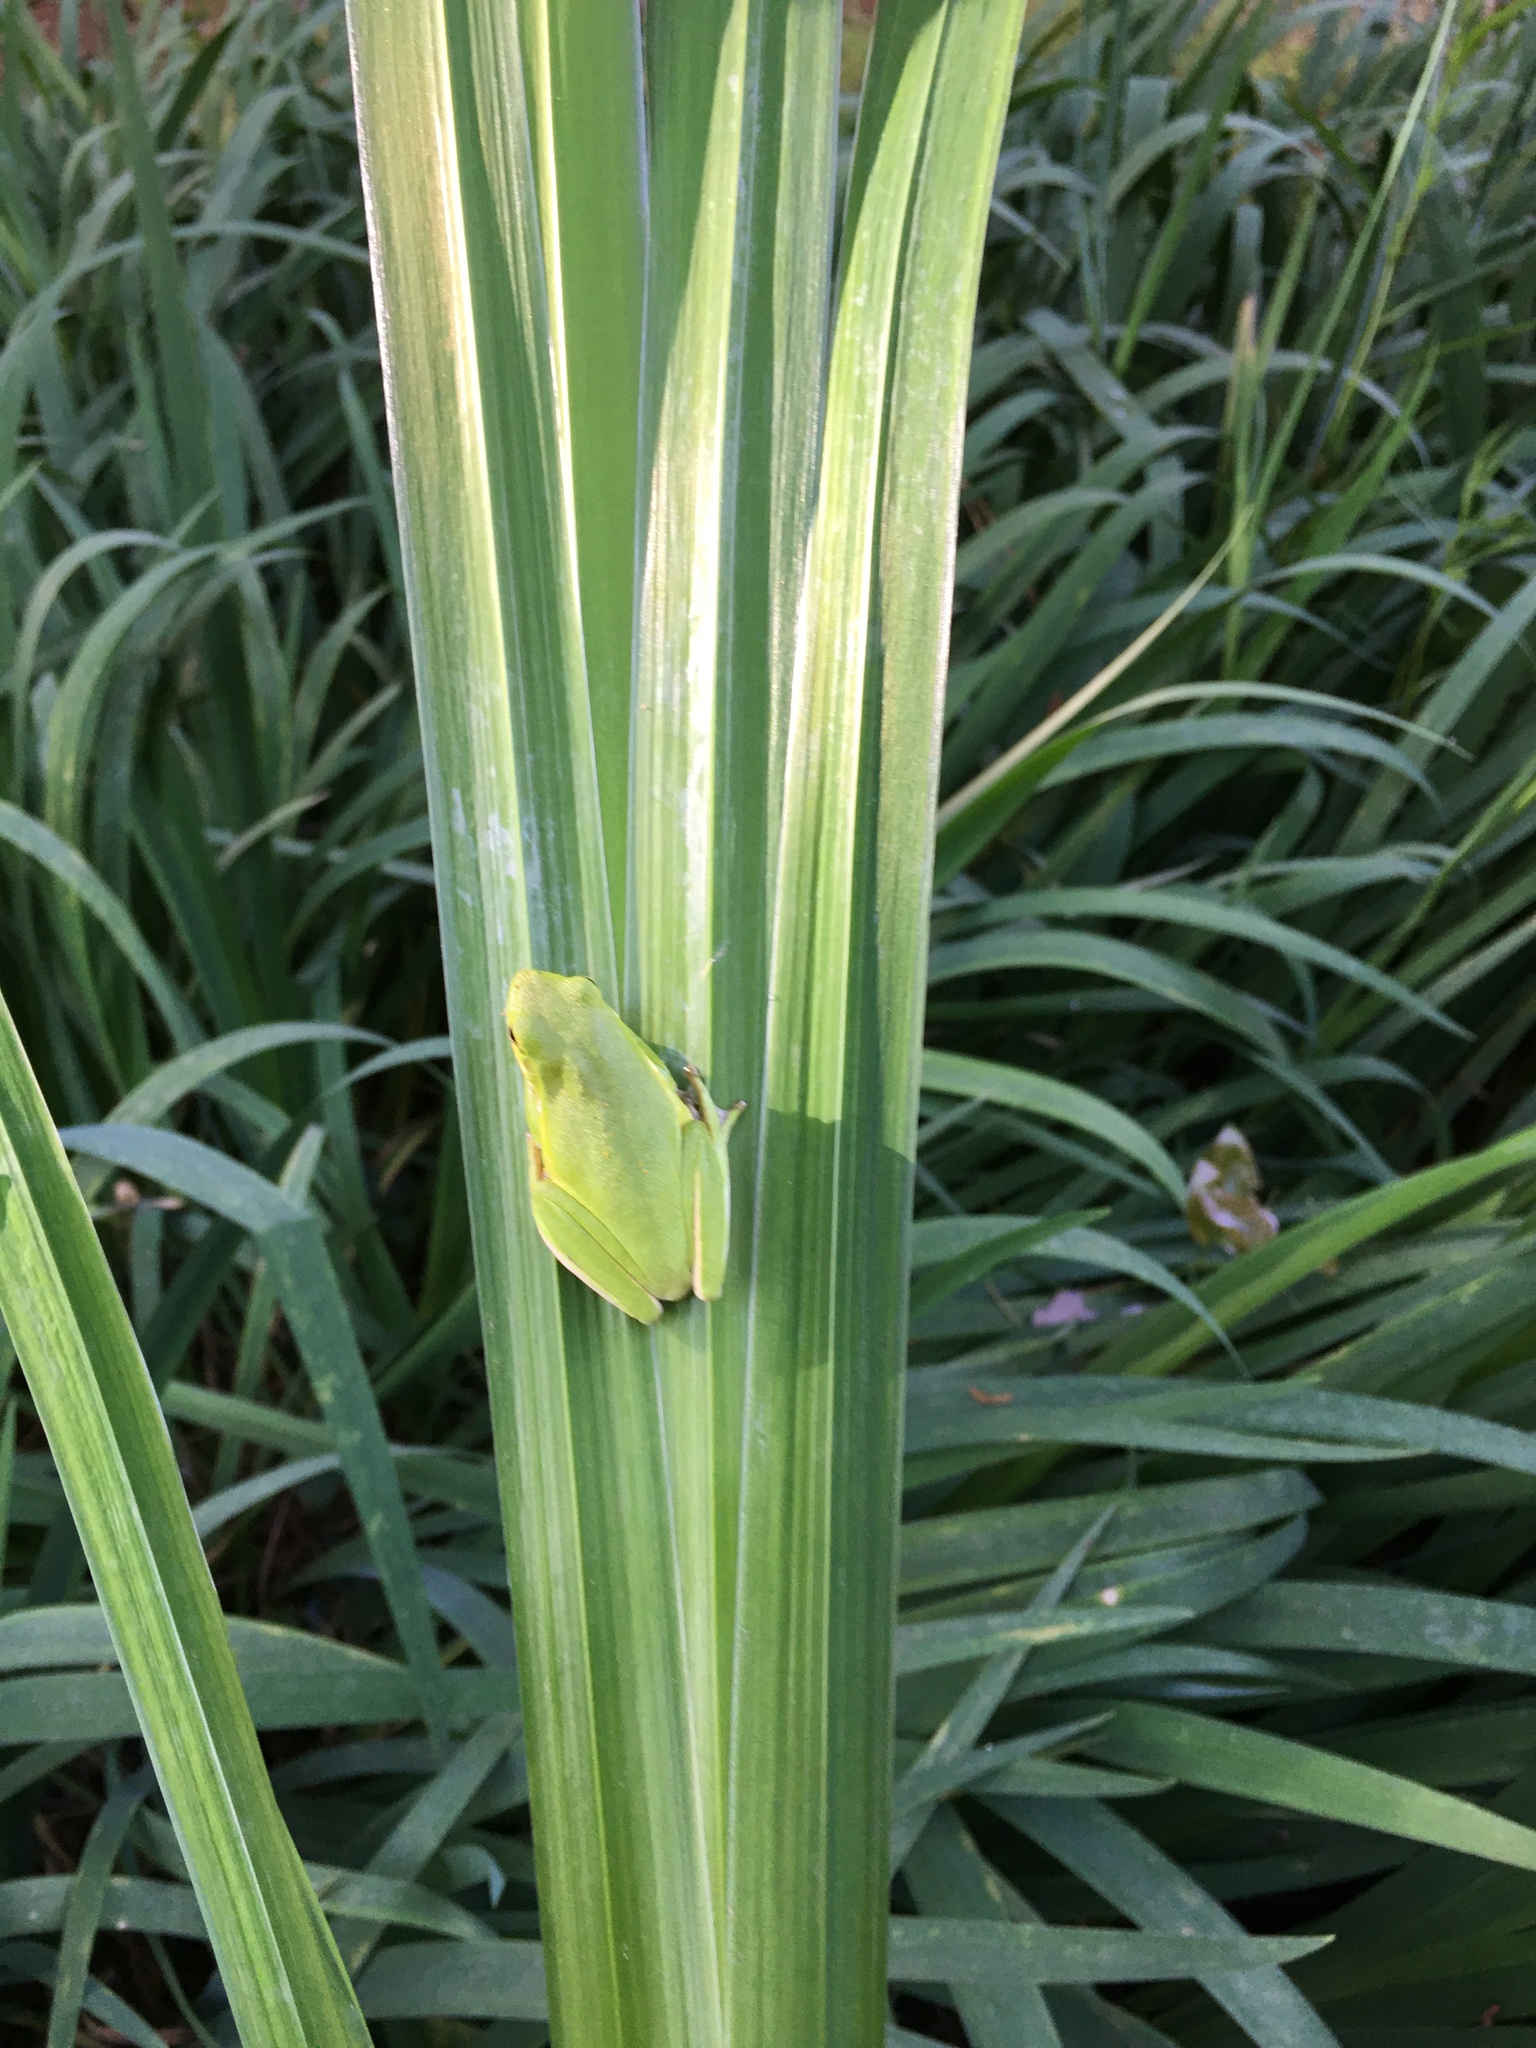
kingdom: Animalia
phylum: Chordata
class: Amphibia
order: Anura
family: Hylidae
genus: Dryophytes
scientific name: Dryophytes cinereus
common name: Green treefrog
